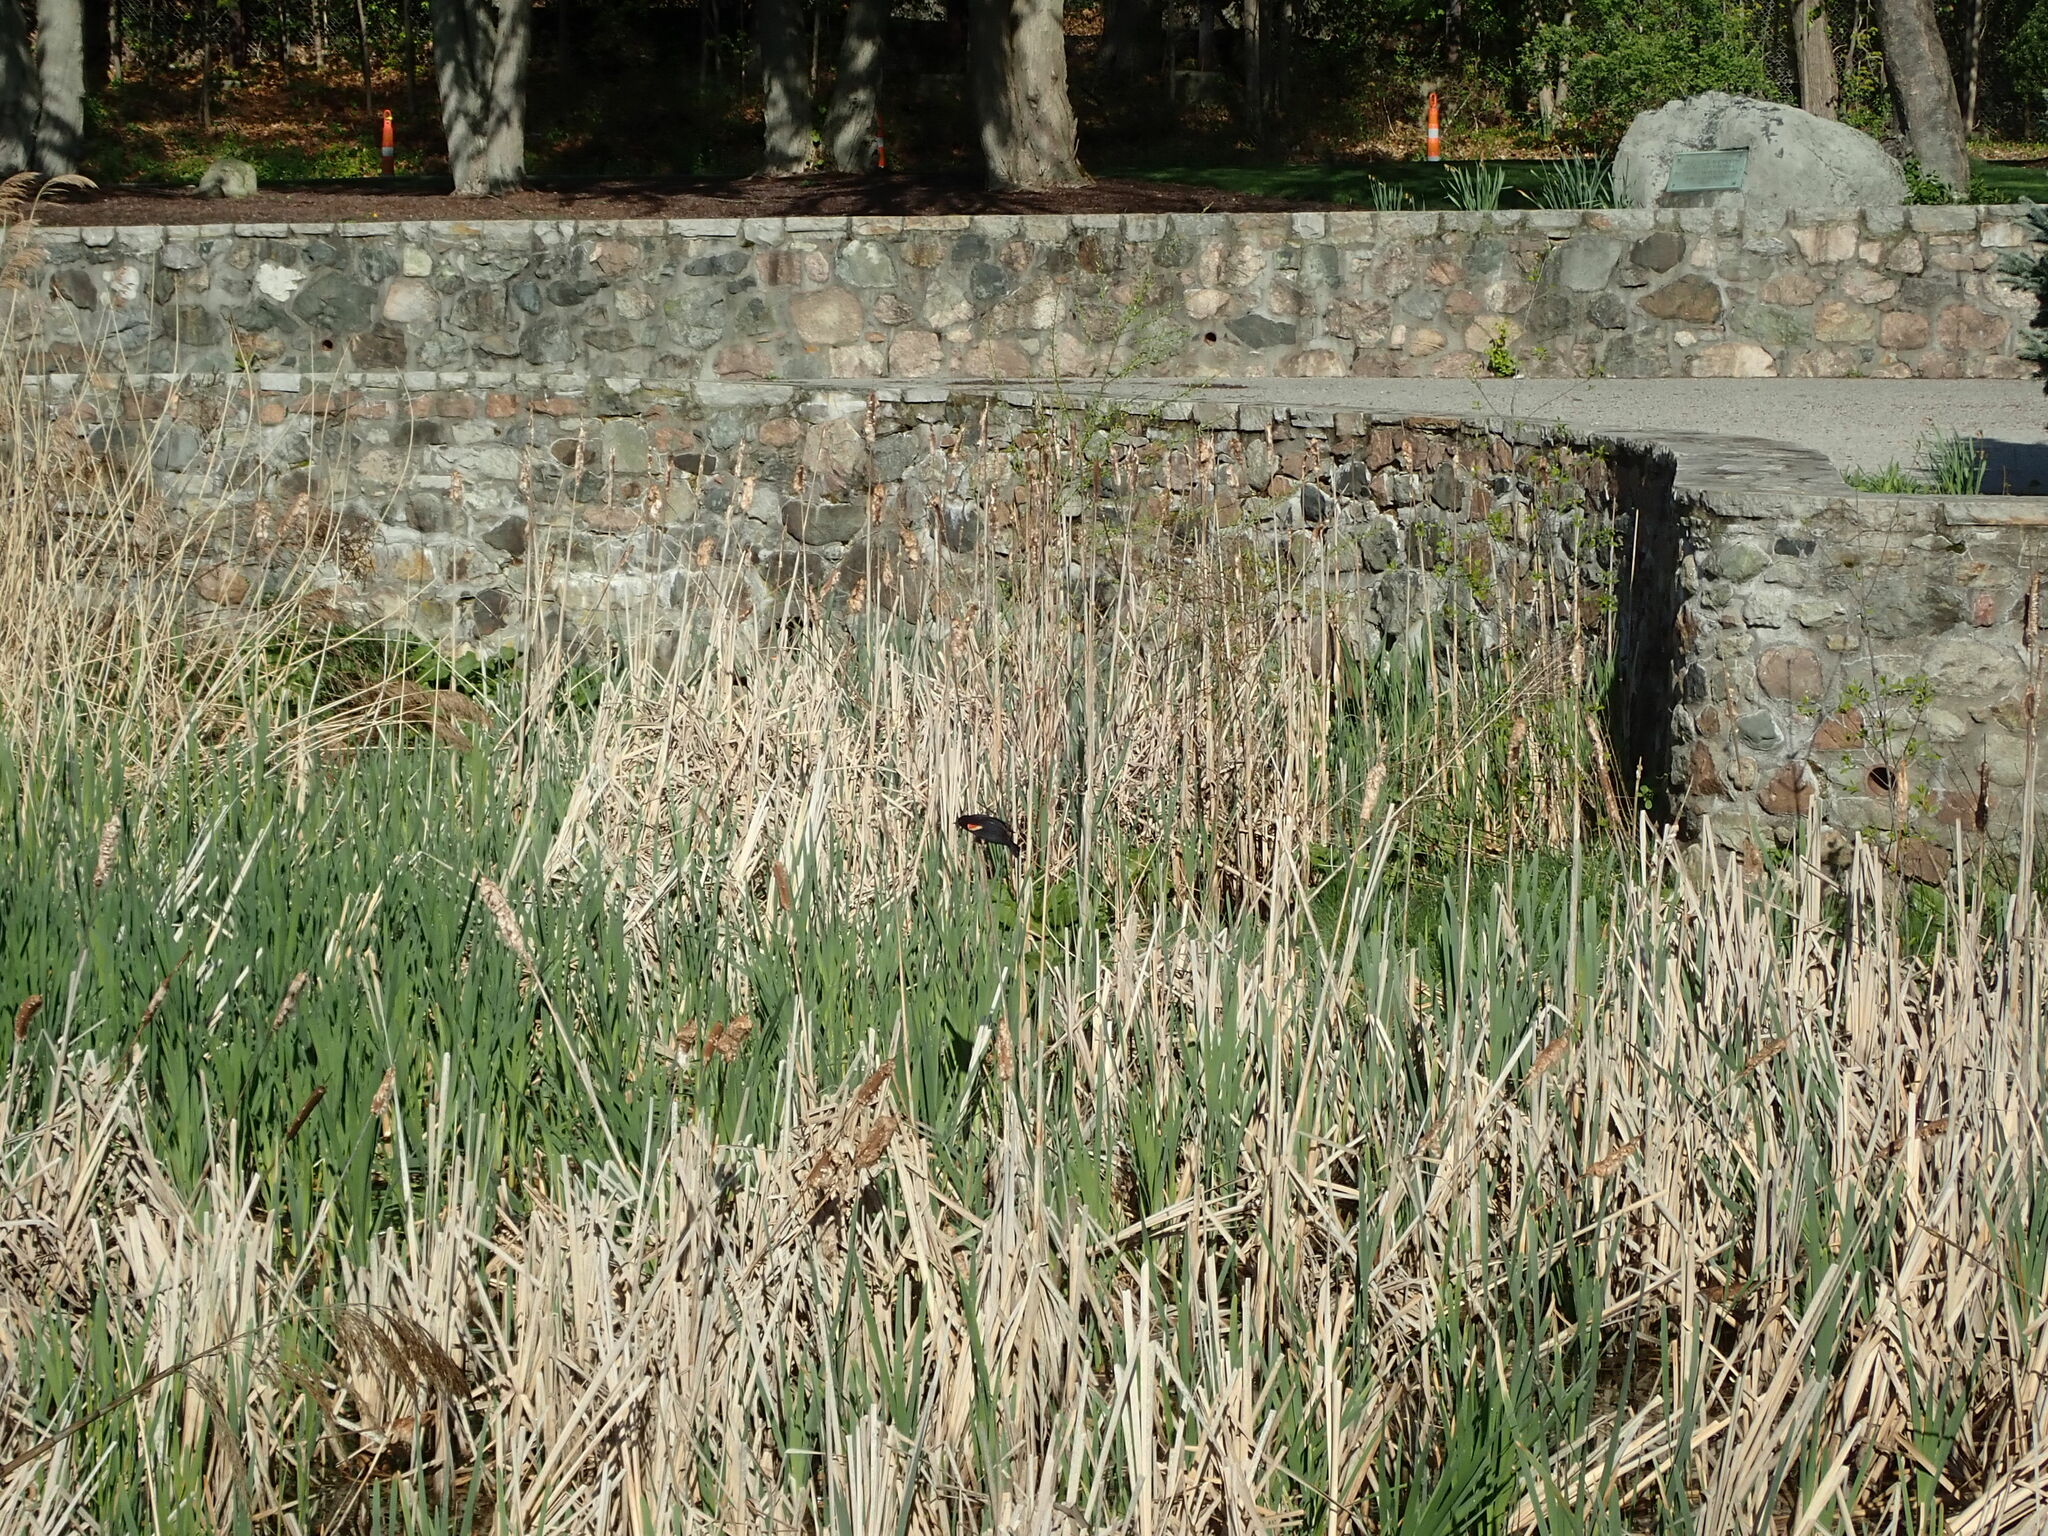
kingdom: Animalia
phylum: Chordata
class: Aves
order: Passeriformes
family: Icteridae
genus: Agelaius
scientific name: Agelaius phoeniceus
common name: Red-winged blackbird
